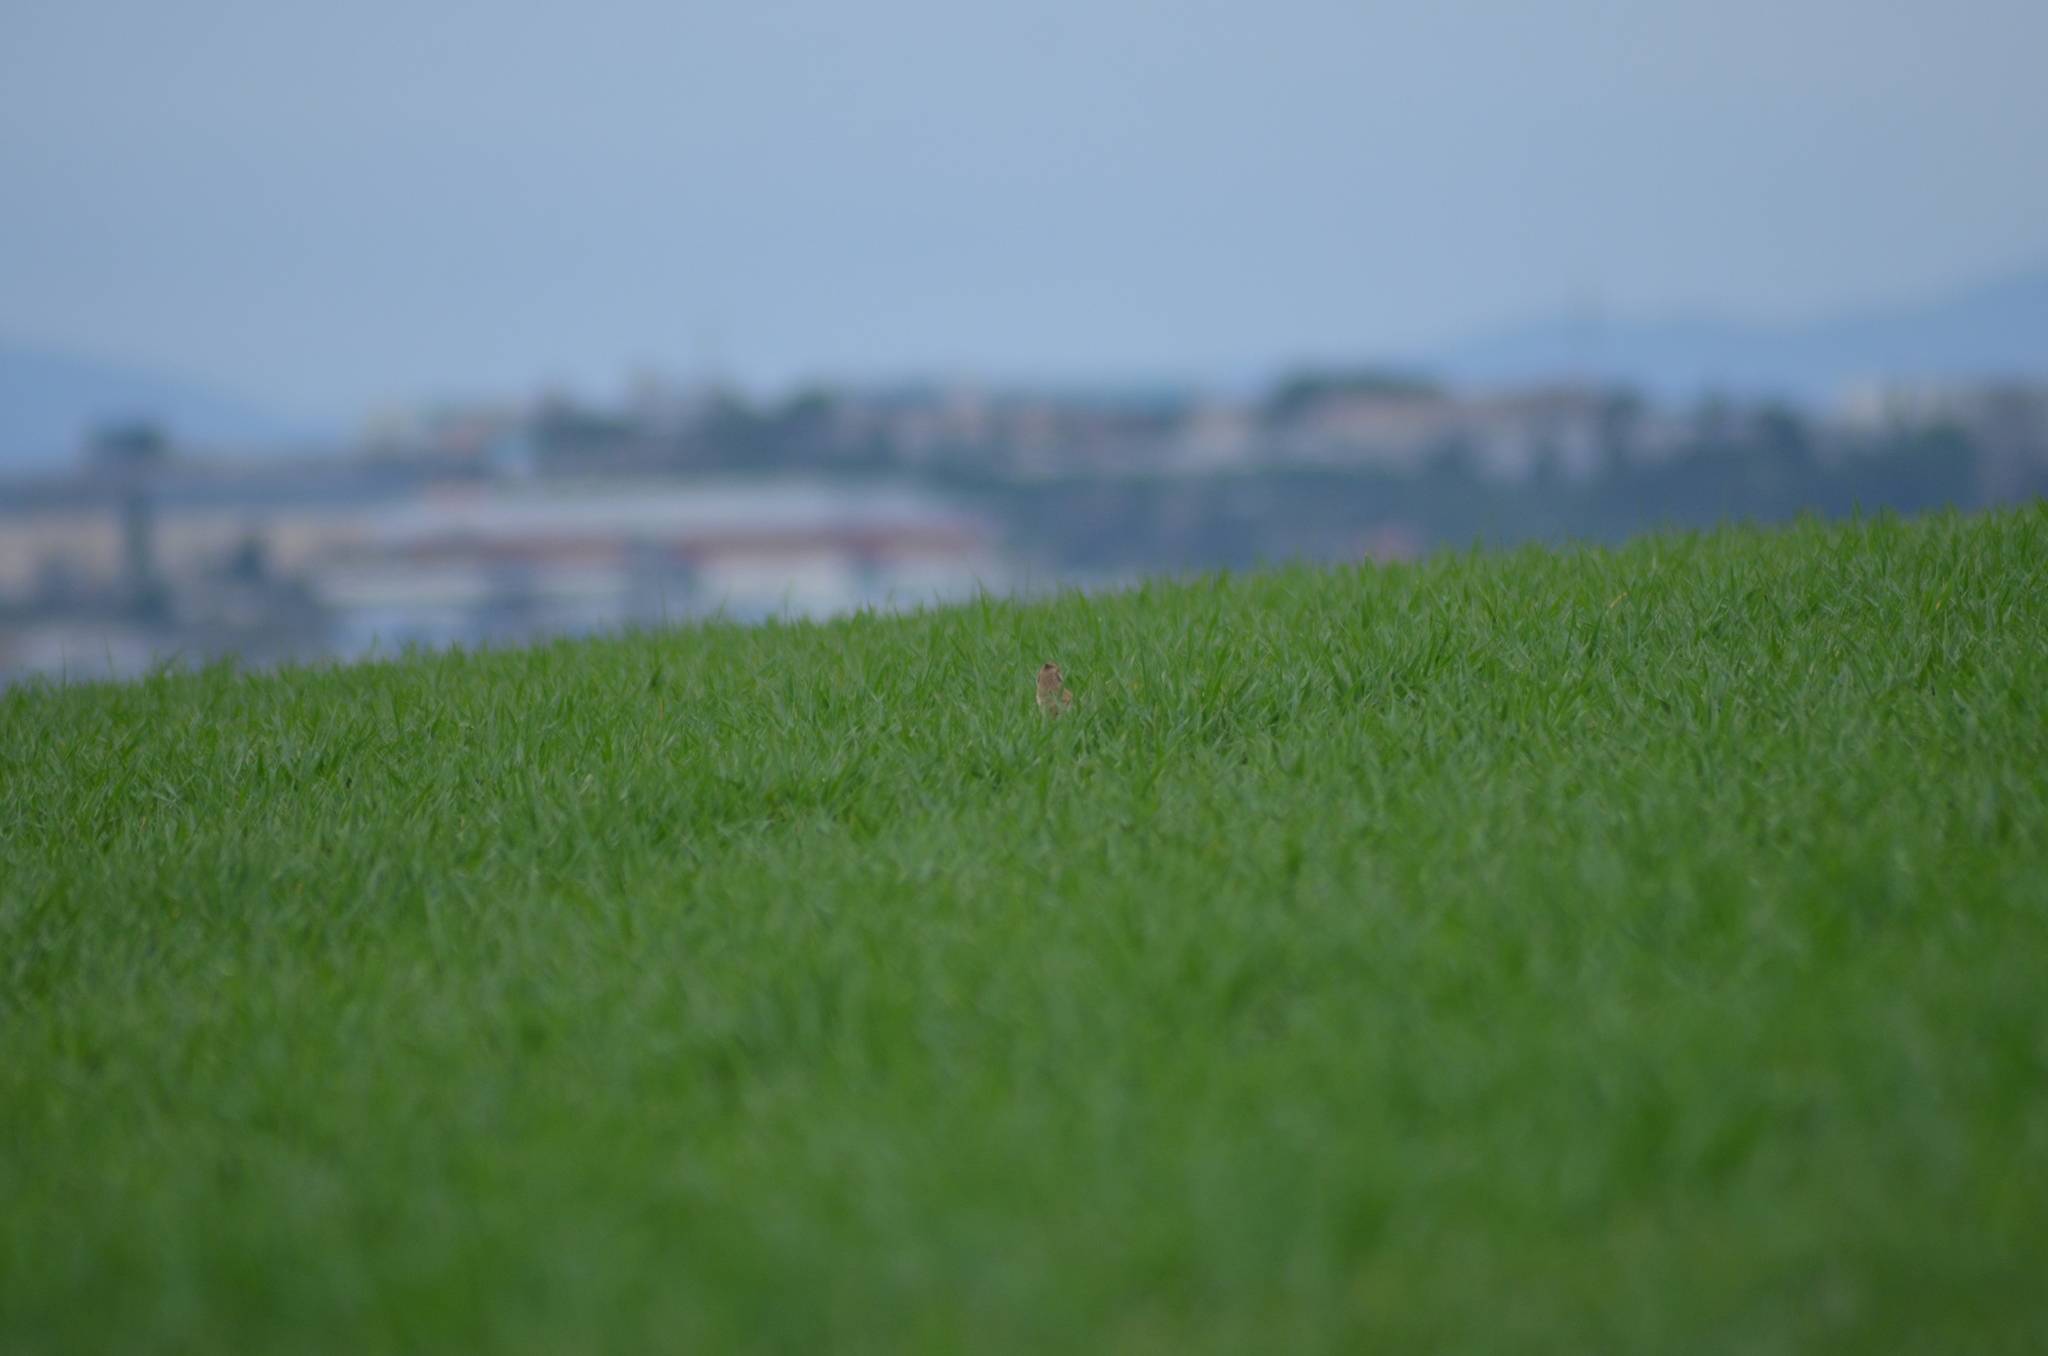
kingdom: Animalia
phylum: Chordata
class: Aves
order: Passeriformes
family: Alaudidae
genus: Galerida
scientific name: Galerida cristata
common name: Crested lark
